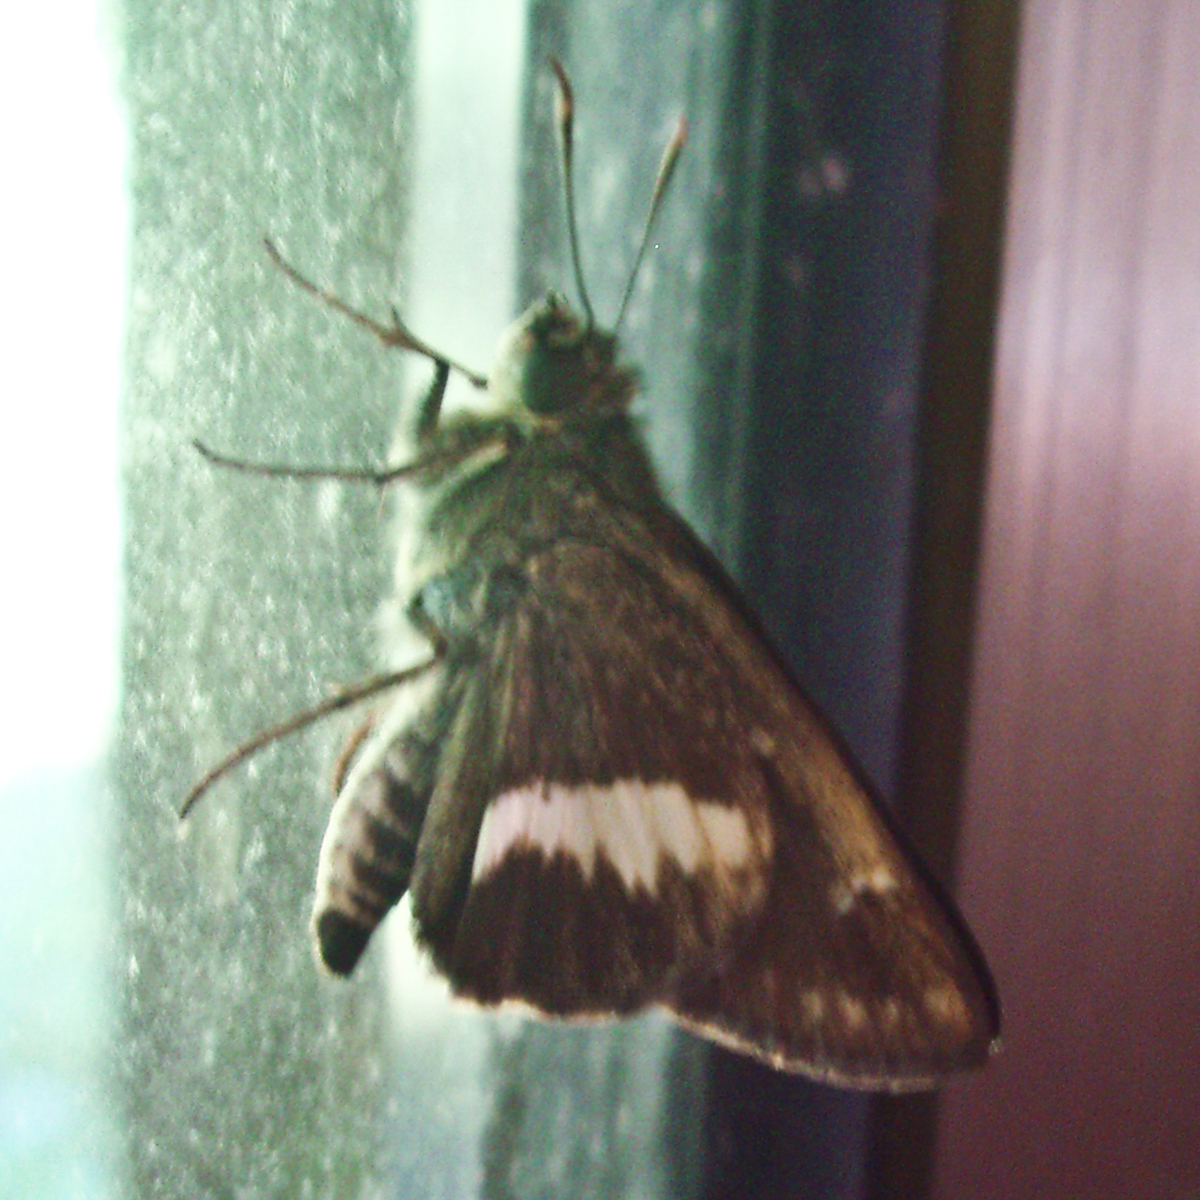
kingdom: Animalia
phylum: Arthropoda
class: Insecta
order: Lepidoptera
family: Hesperiidae
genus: Halpe
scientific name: Halpe zola
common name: Long-banded ace
